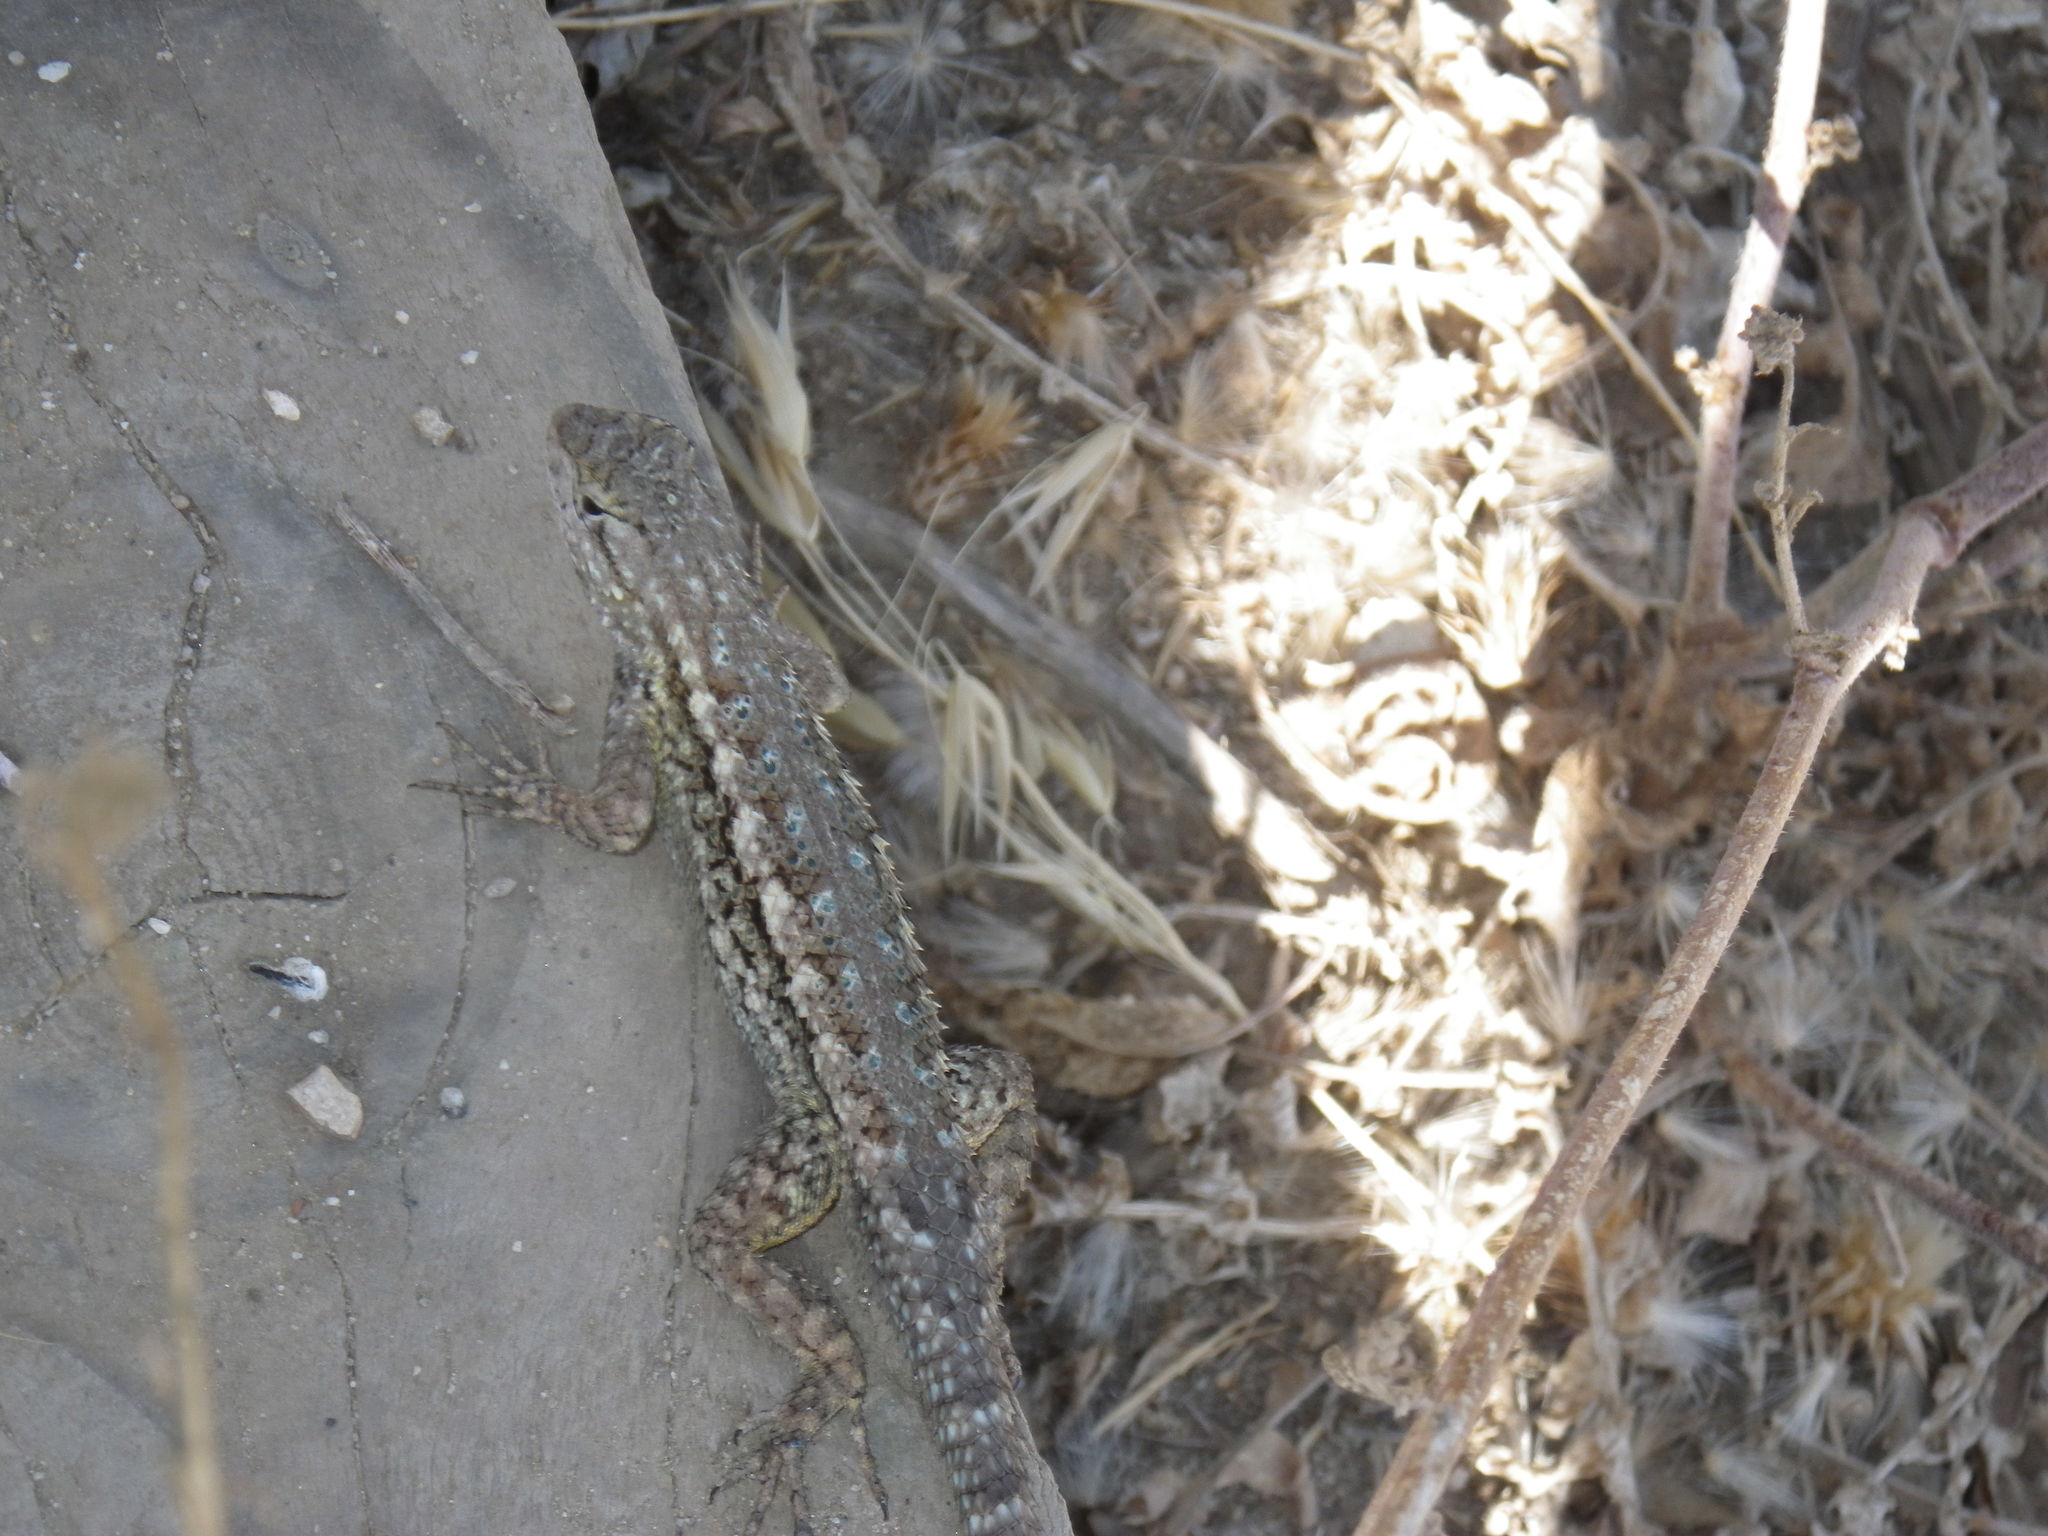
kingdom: Animalia
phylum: Chordata
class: Squamata
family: Phrynosomatidae
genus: Sceloporus
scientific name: Sceloporus occidentalis
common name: Western fence lizard
